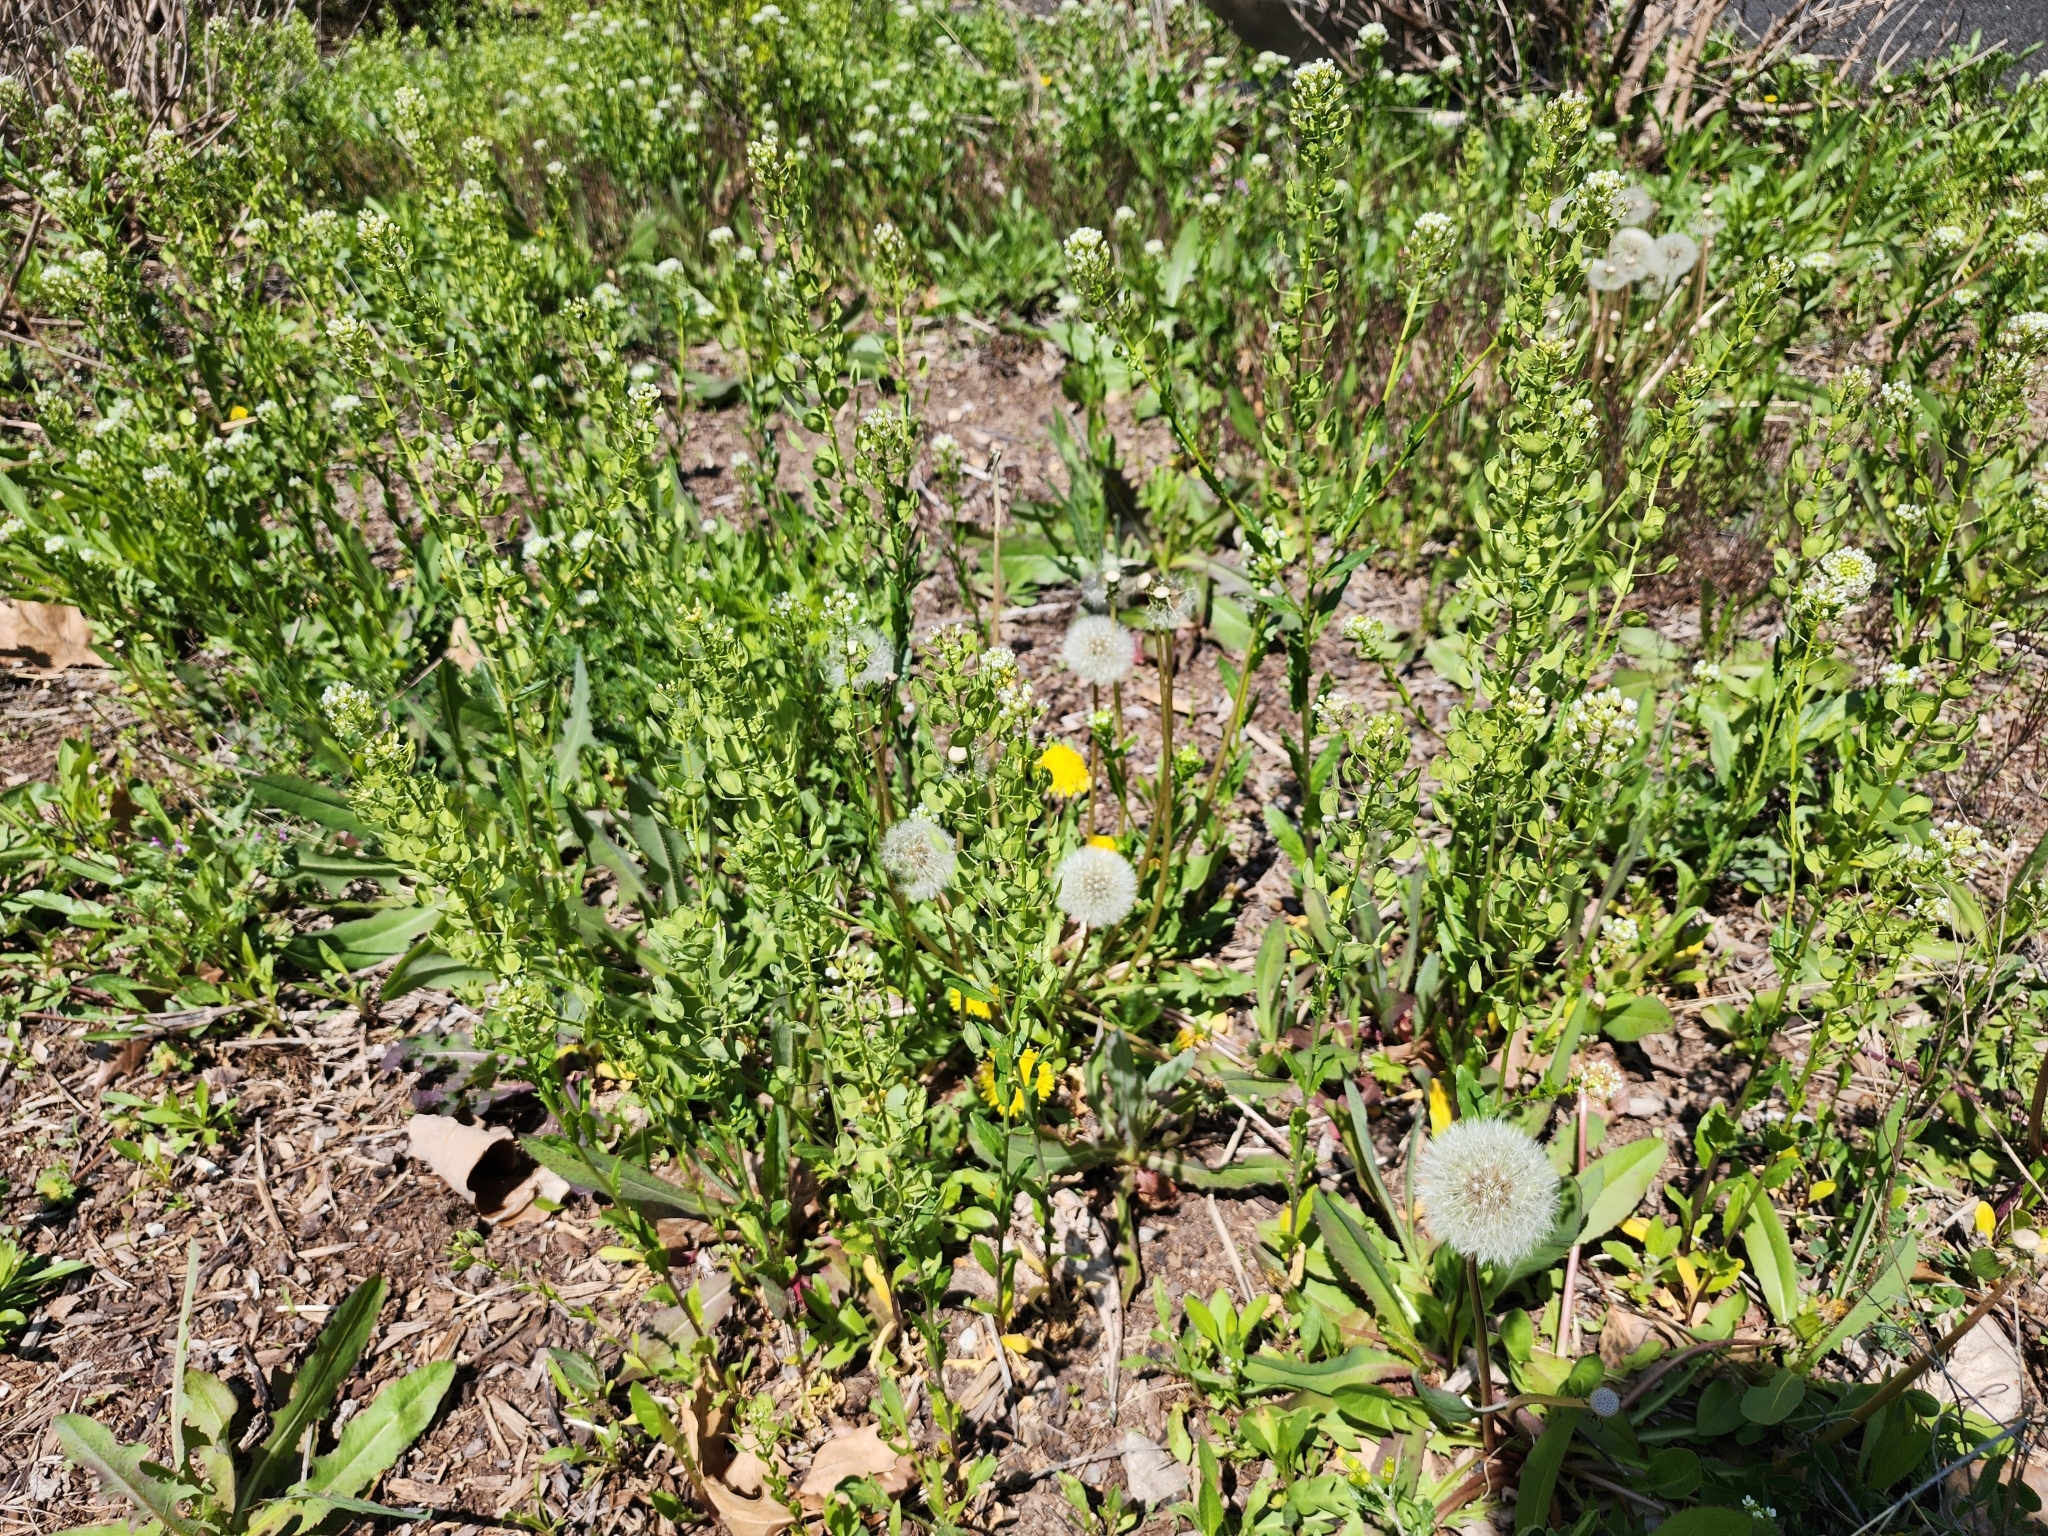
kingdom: Plantae
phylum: Tracheophyta
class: Magnoliopsida
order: Brassicales
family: Brassicaceae
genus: Thlaspi
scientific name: Thlaspi arvense
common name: Field pennycress
